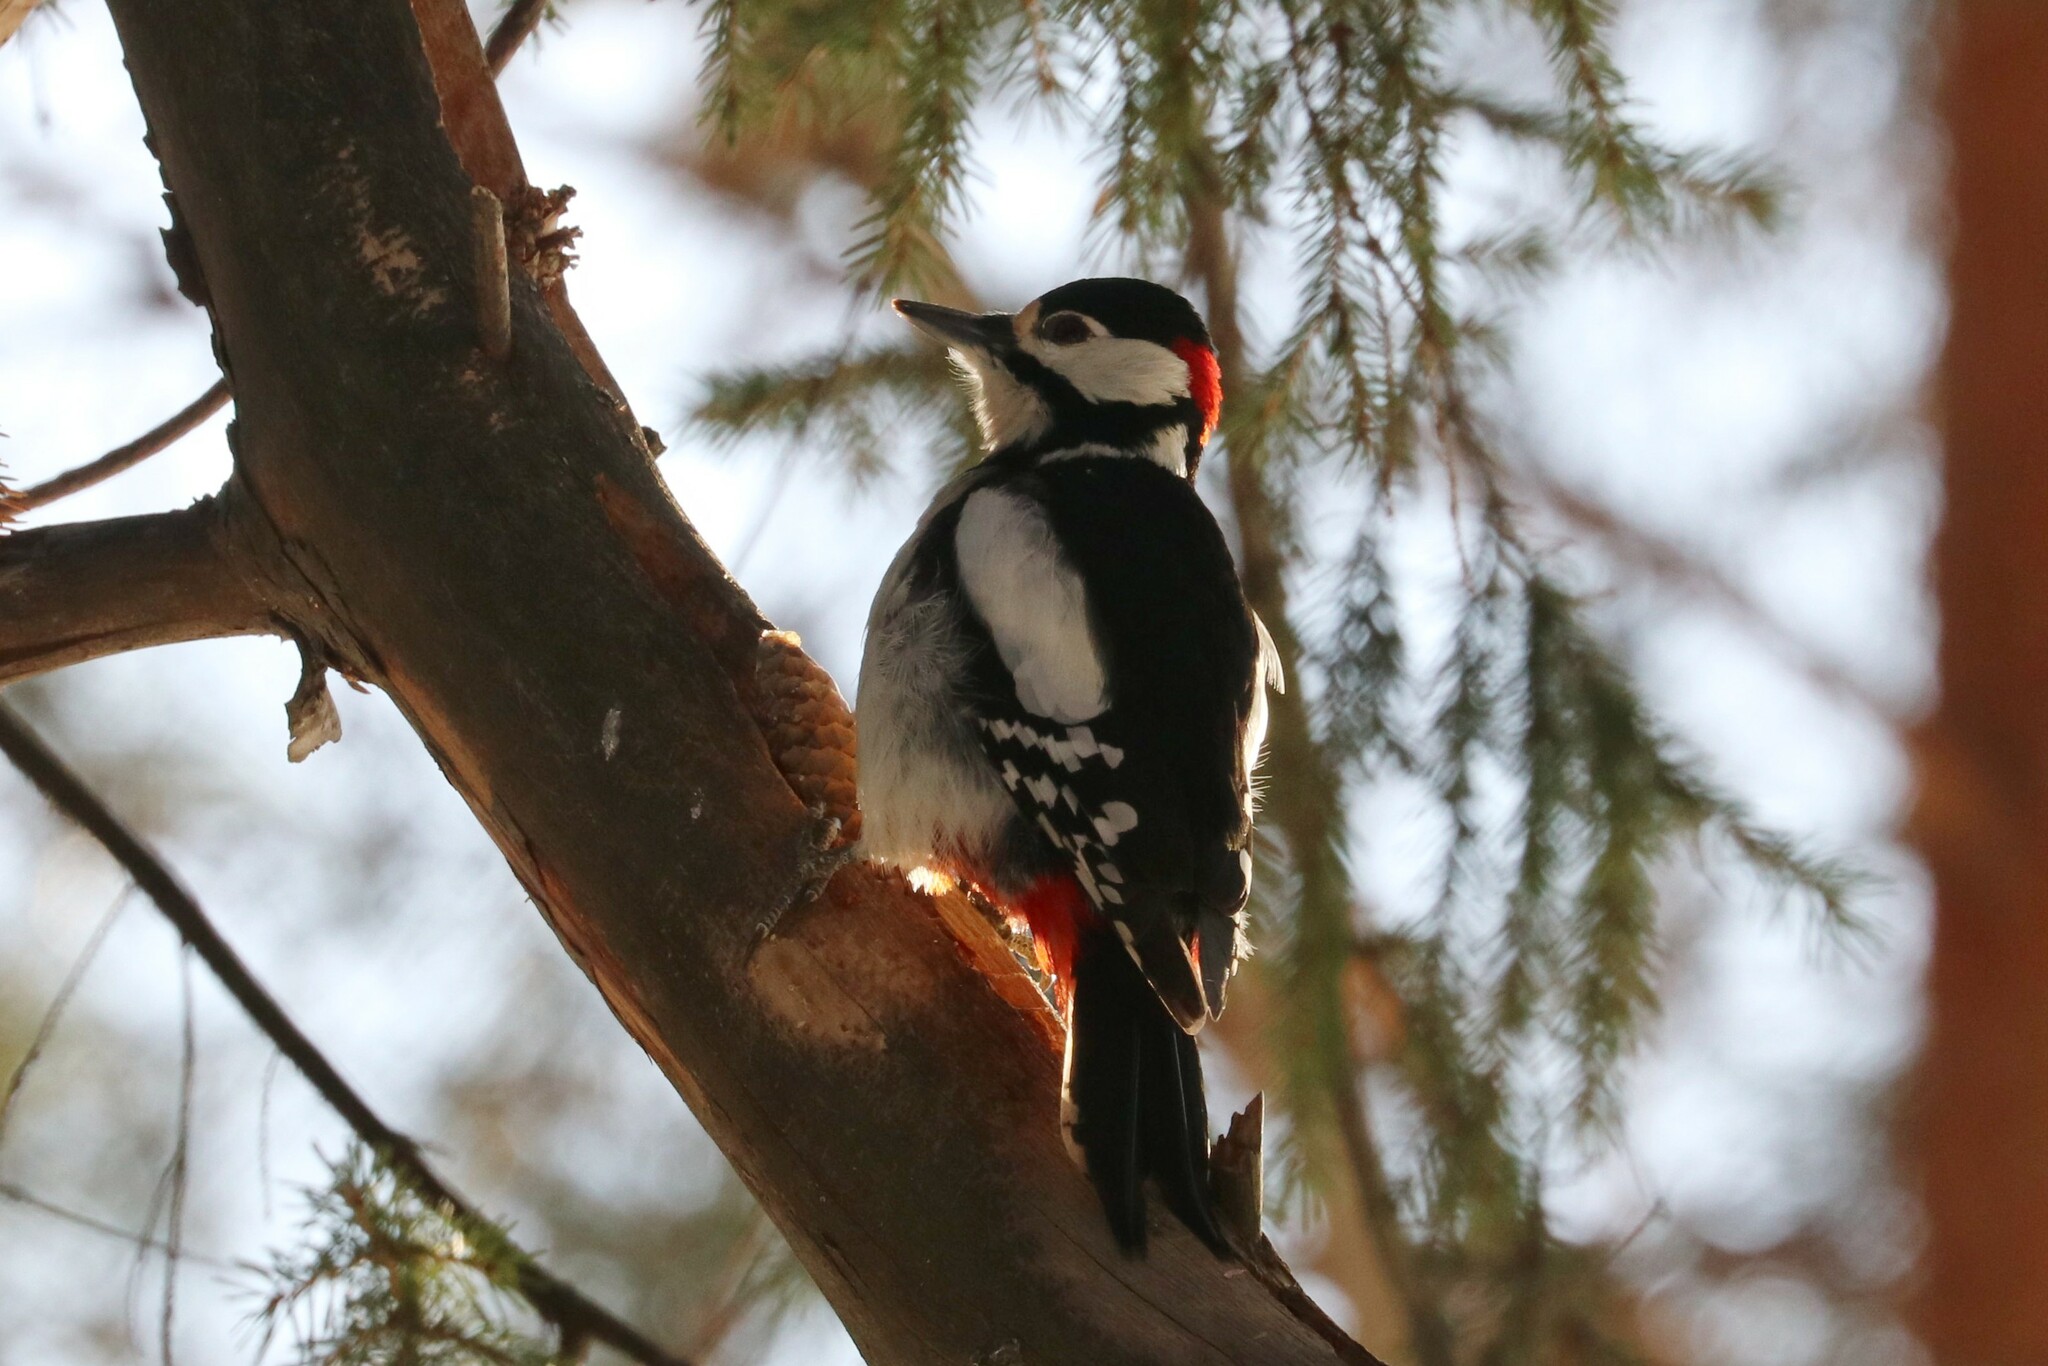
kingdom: Animalia
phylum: Chordata
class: Aves
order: Piciformes
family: Picidae
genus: Dendrocopos
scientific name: Dendrocopos major
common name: Great spotted woodpecker
